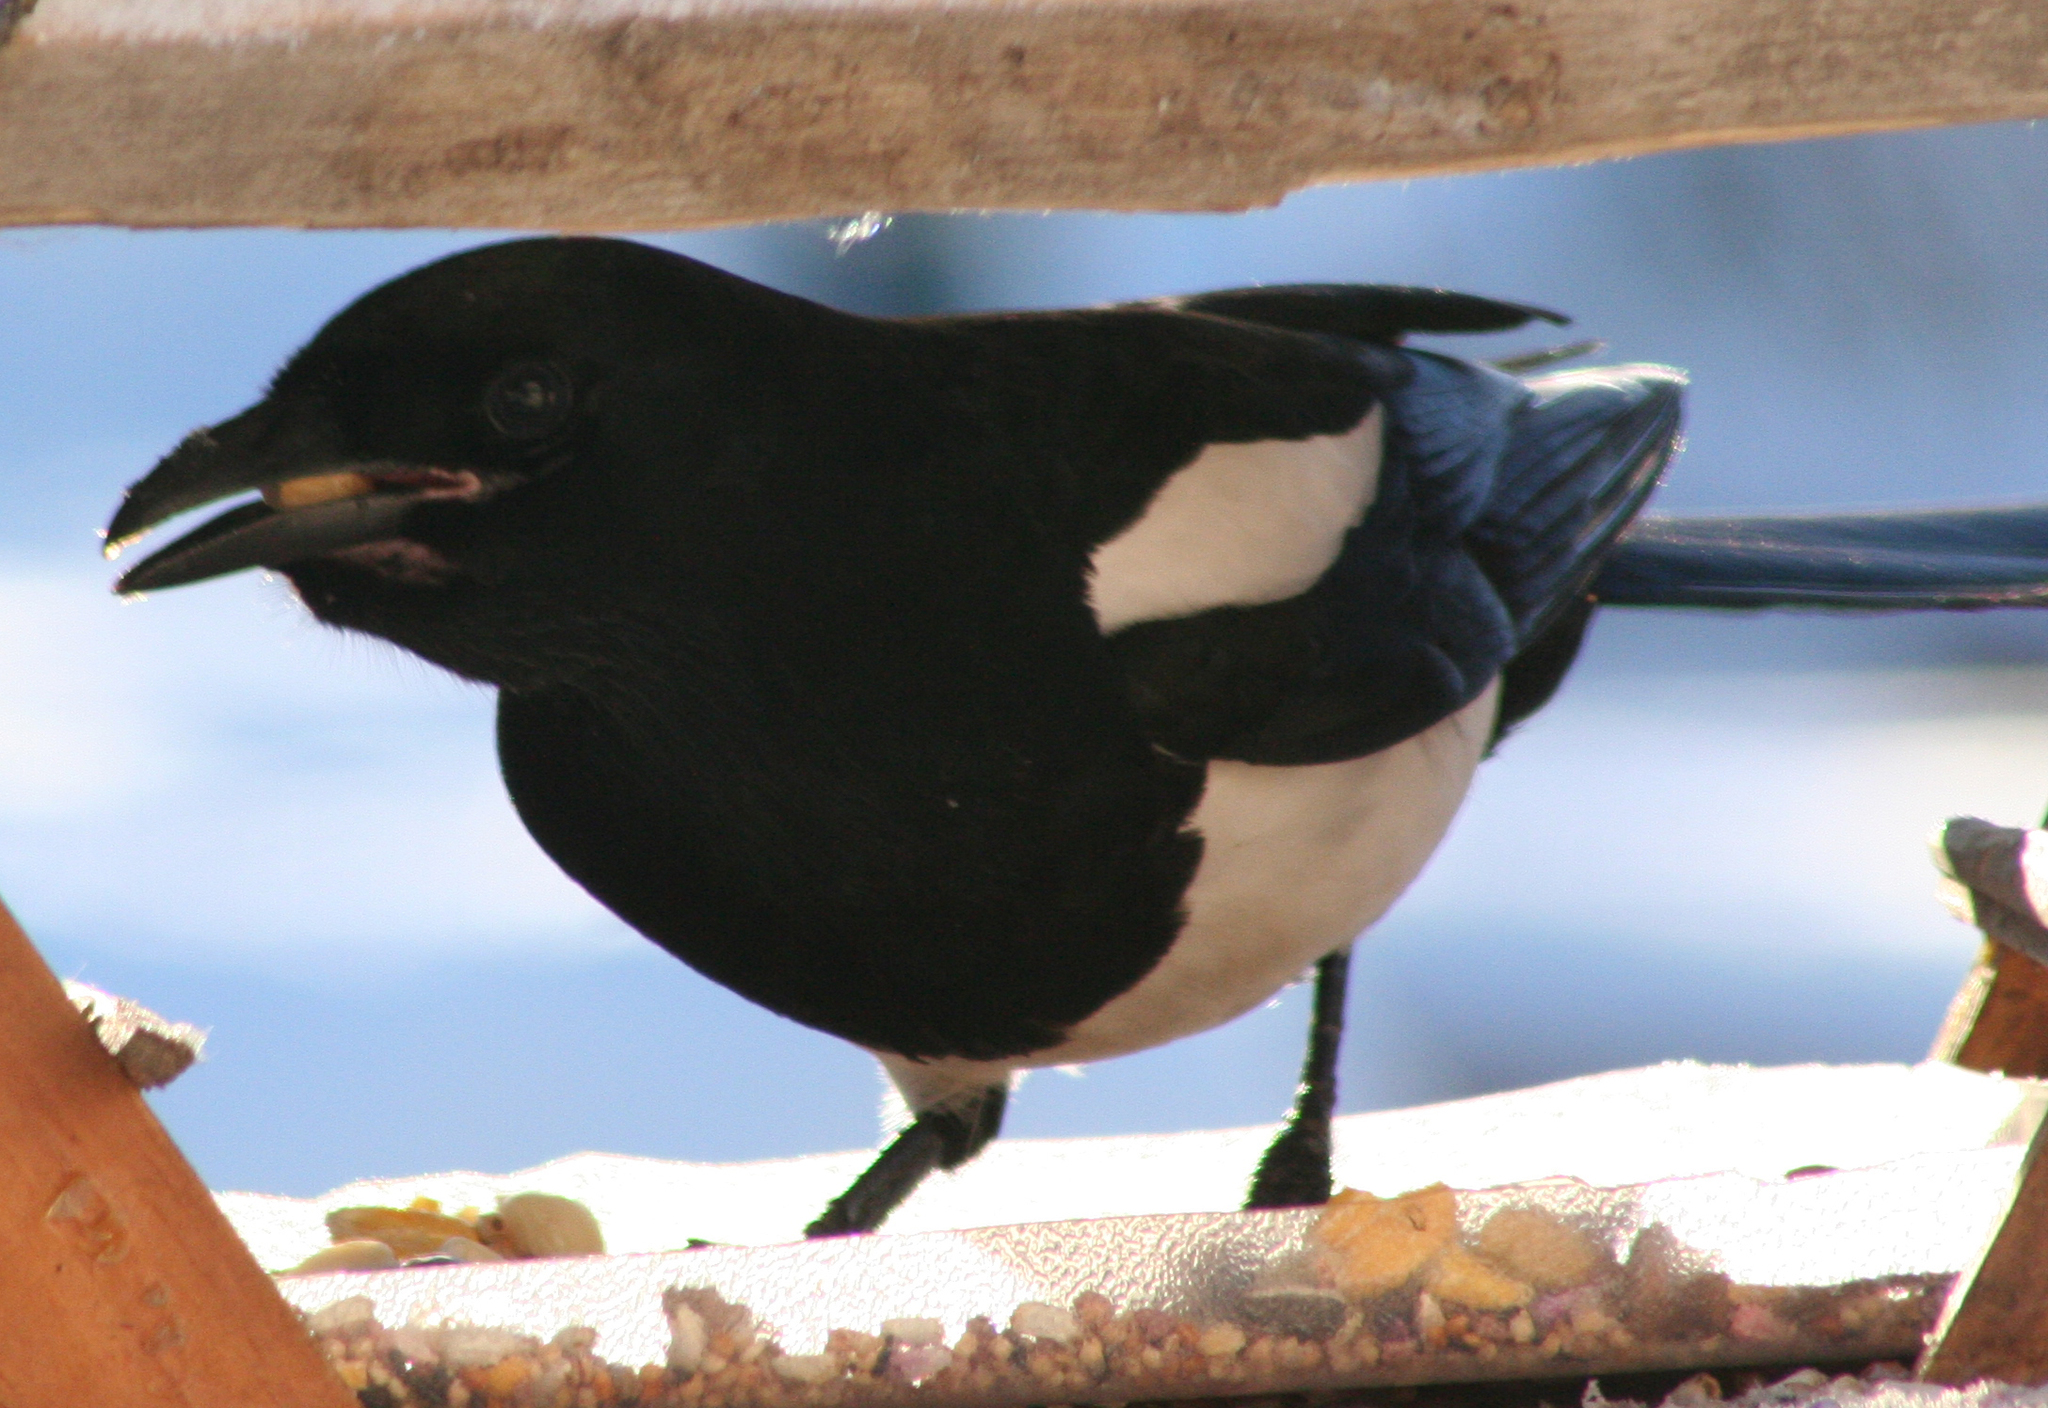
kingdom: Animalia
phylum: Chordata
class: Aves
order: Passeriformes
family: Corvidae
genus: Pica
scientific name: Pica hudsonia
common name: Black-billed magpie
